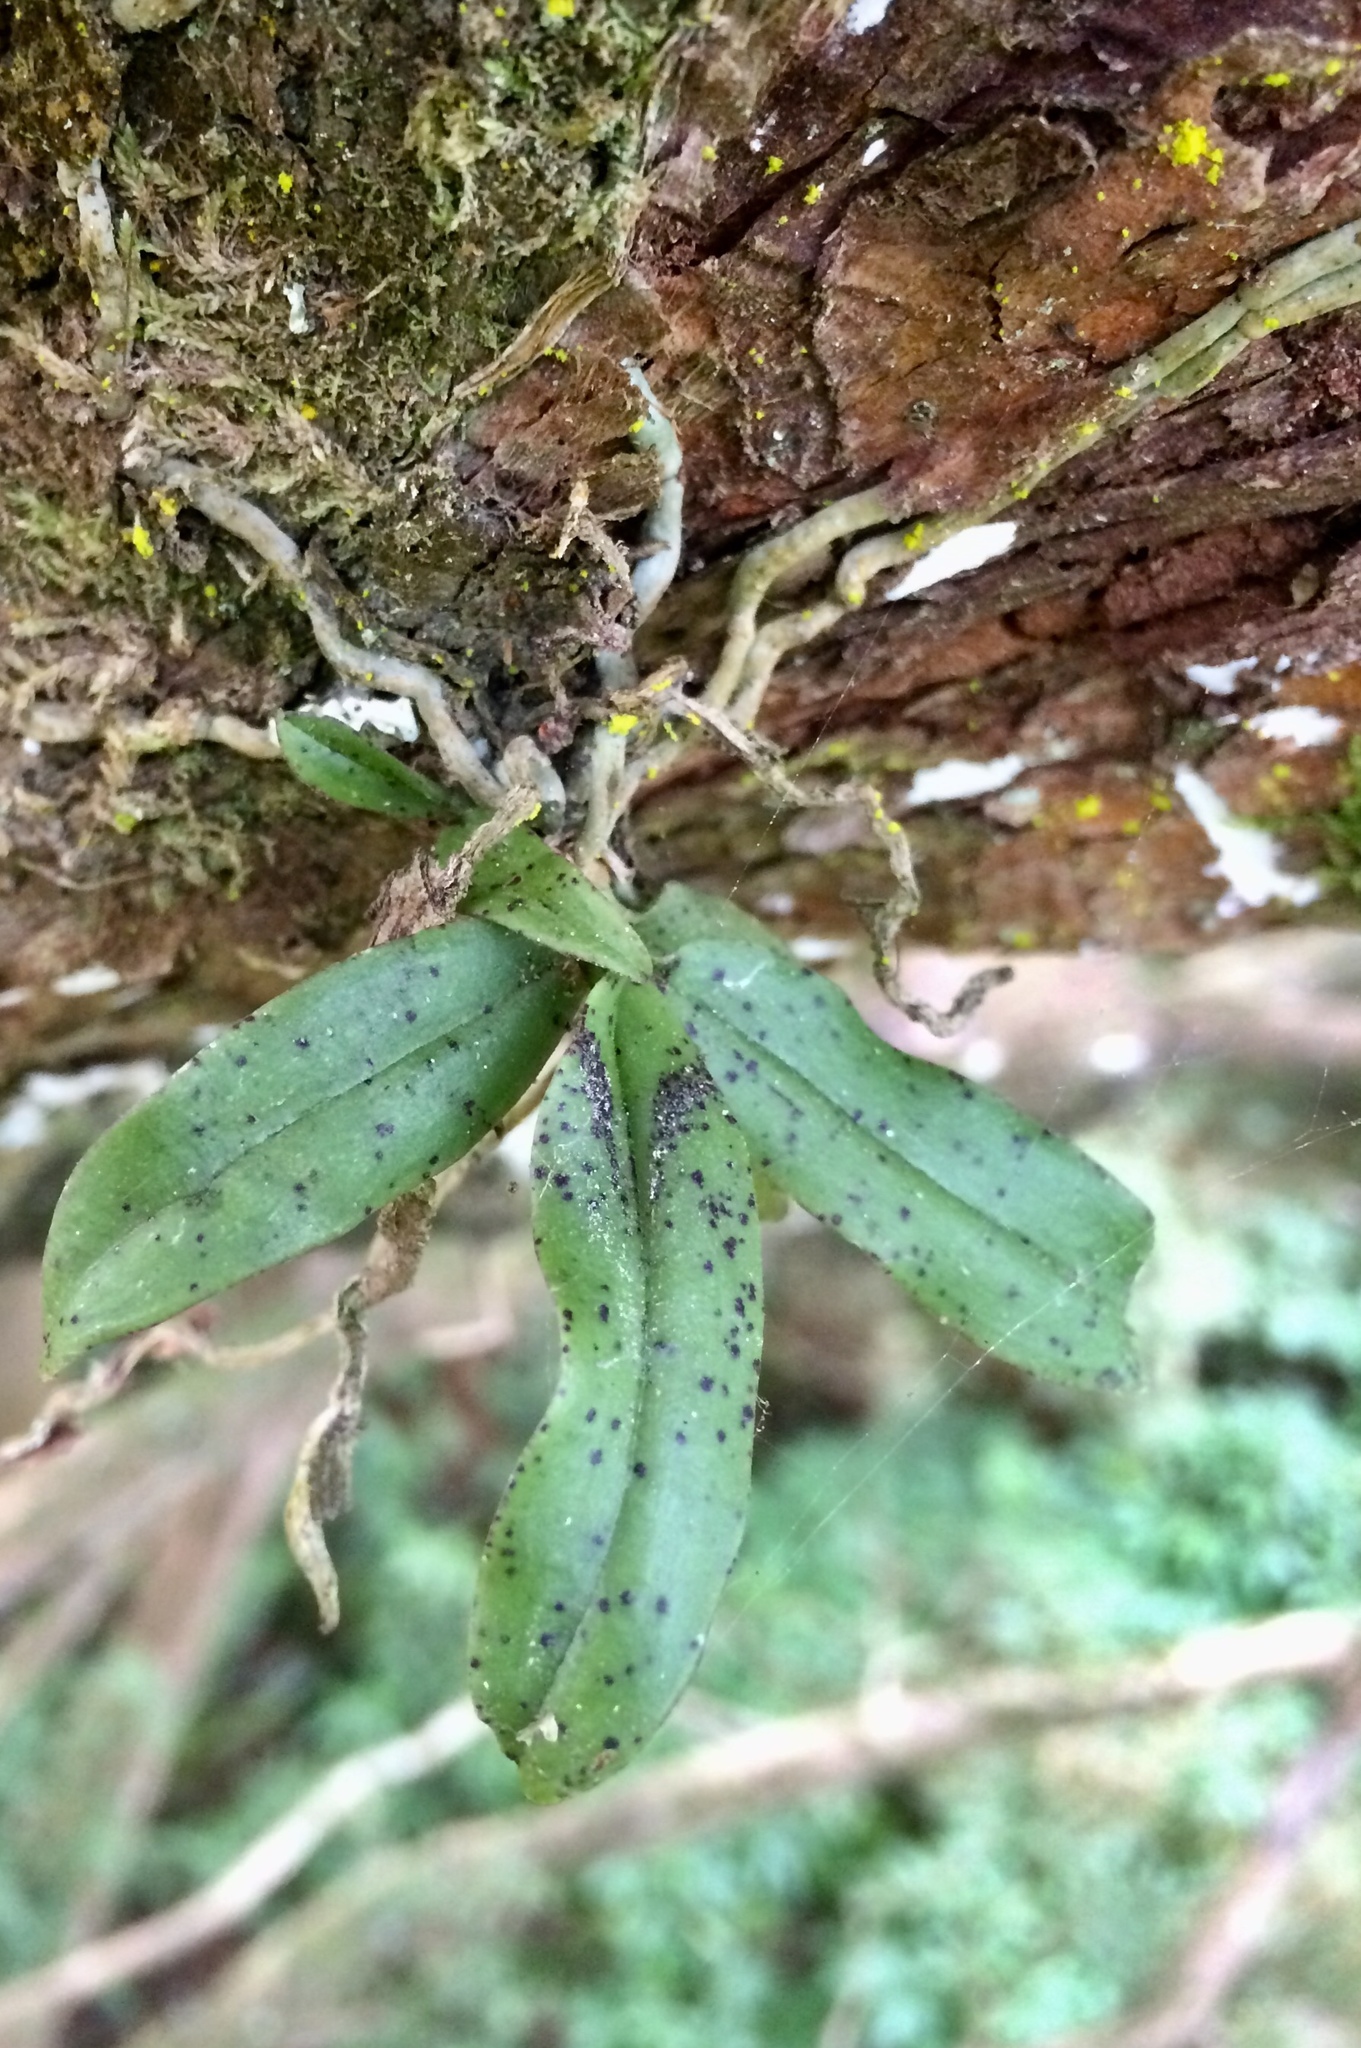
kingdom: Plantae
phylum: Tracheophyta
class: Liliopsida
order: Asparagales
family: Orchidaceae
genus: Drymoanthus
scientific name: Drymoanthus flavus
